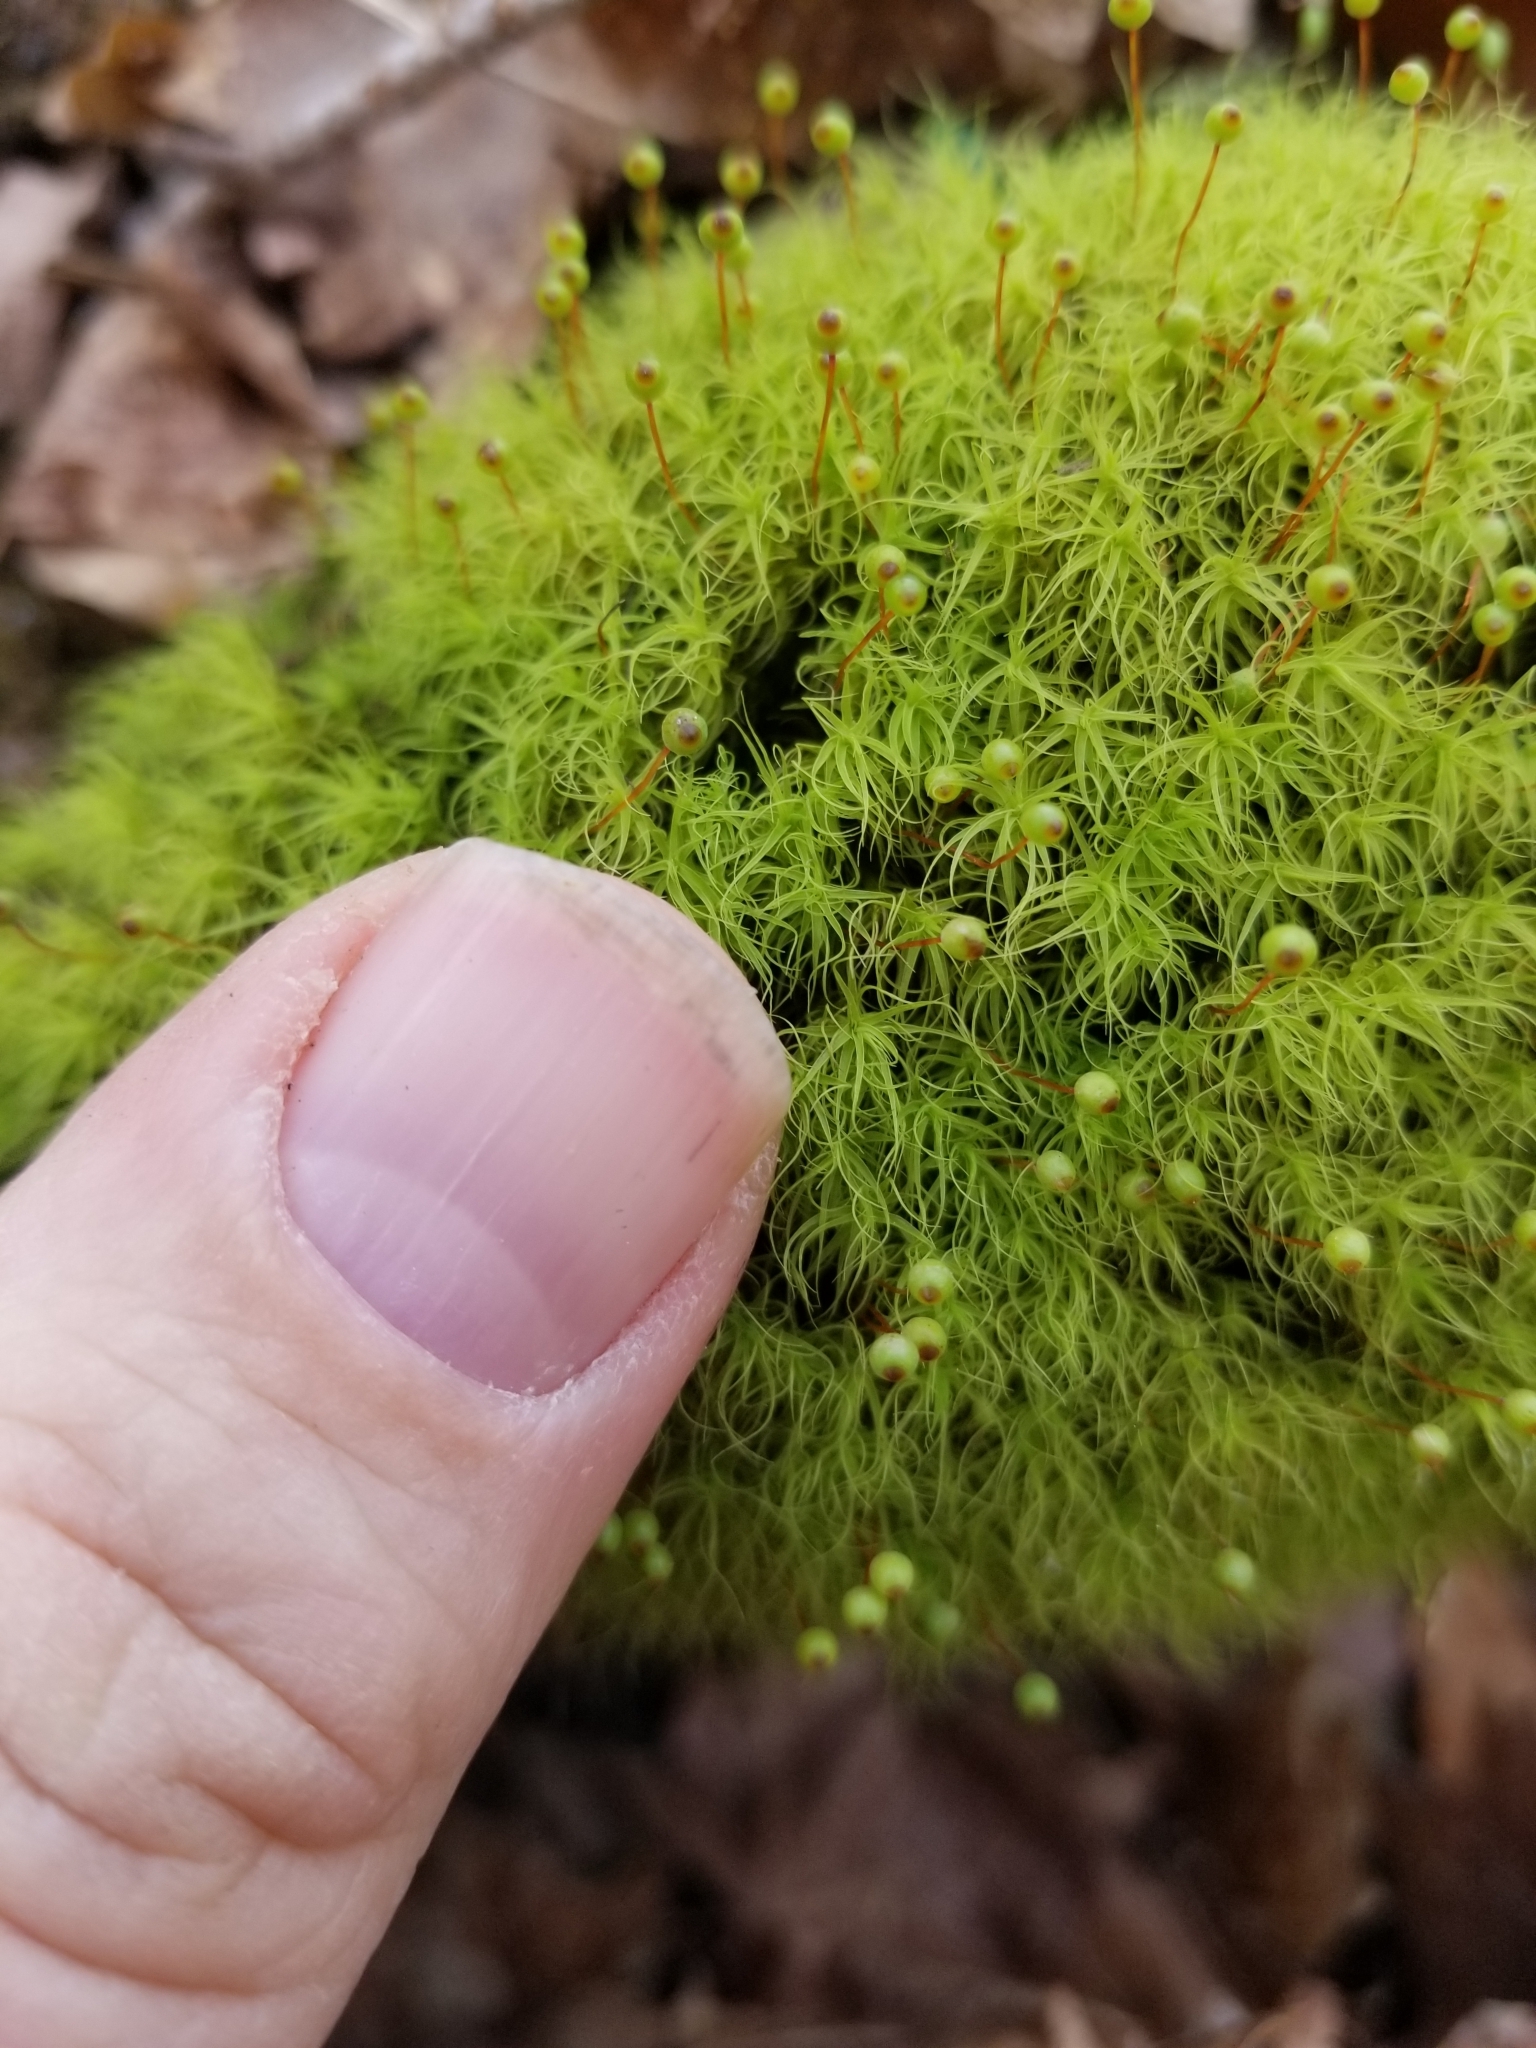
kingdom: Plantae
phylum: Bryophyta
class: Bryopsida
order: Bartramiales
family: Bartramiaceae
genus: Bartramia
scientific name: Bartramia ithyphylla
